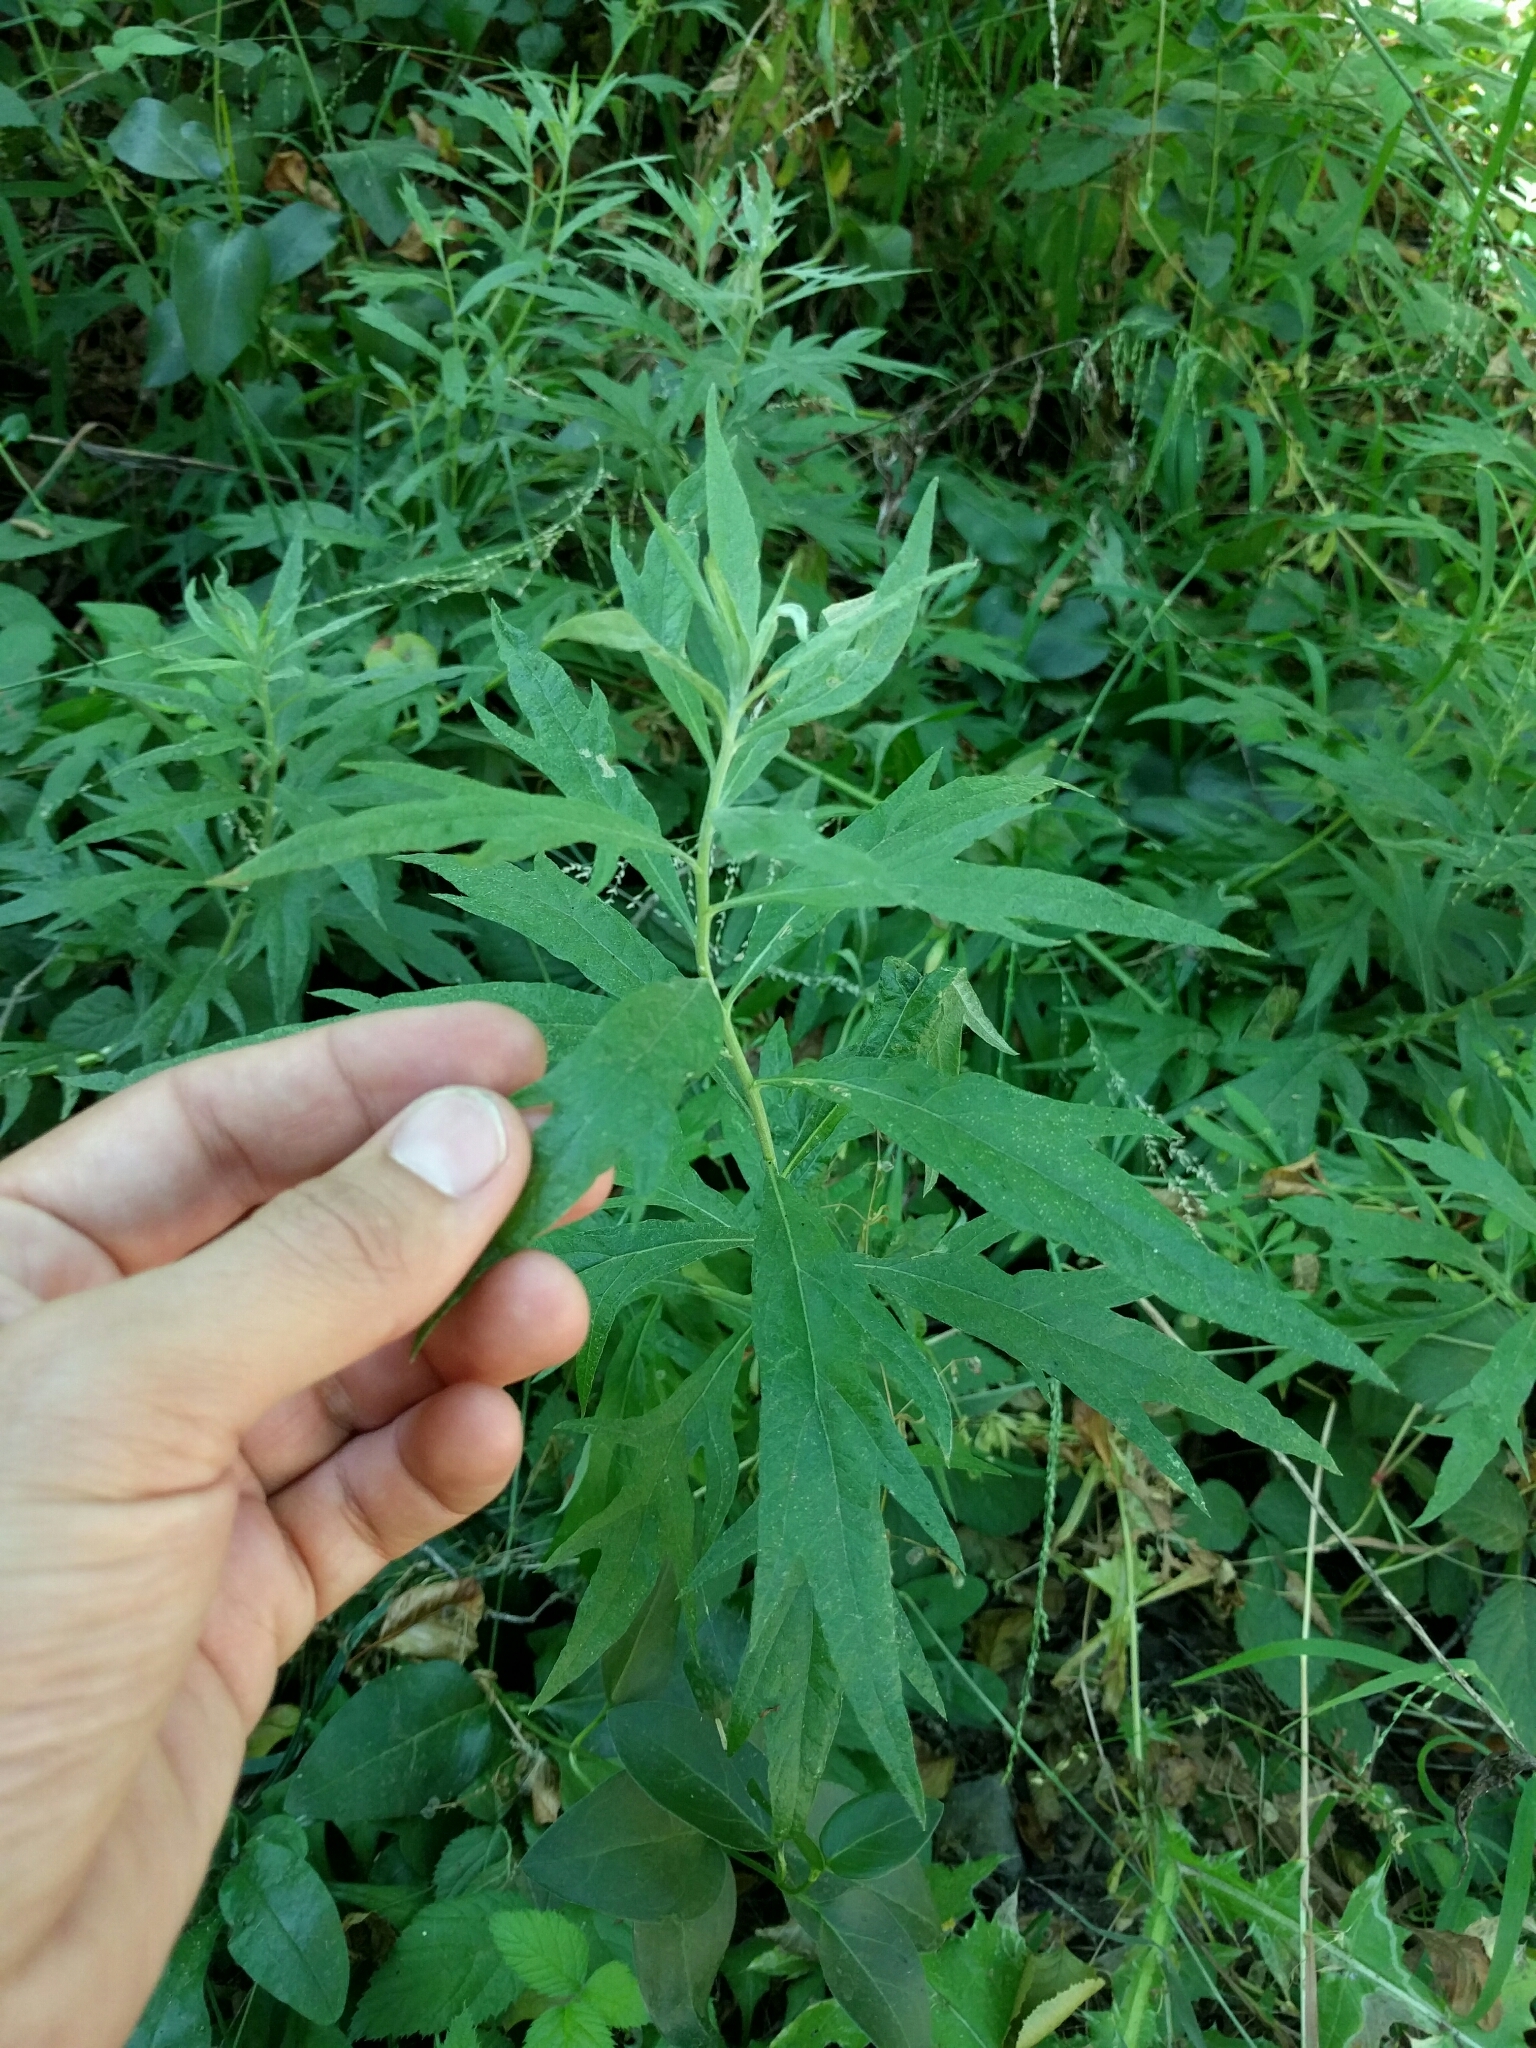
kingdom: Plantae
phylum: Tracheophyta
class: Magnoliopsida
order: Asterales
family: Asteraceae
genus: Artemisia
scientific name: Artemisia douglasiana
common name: Northwest mugwort
